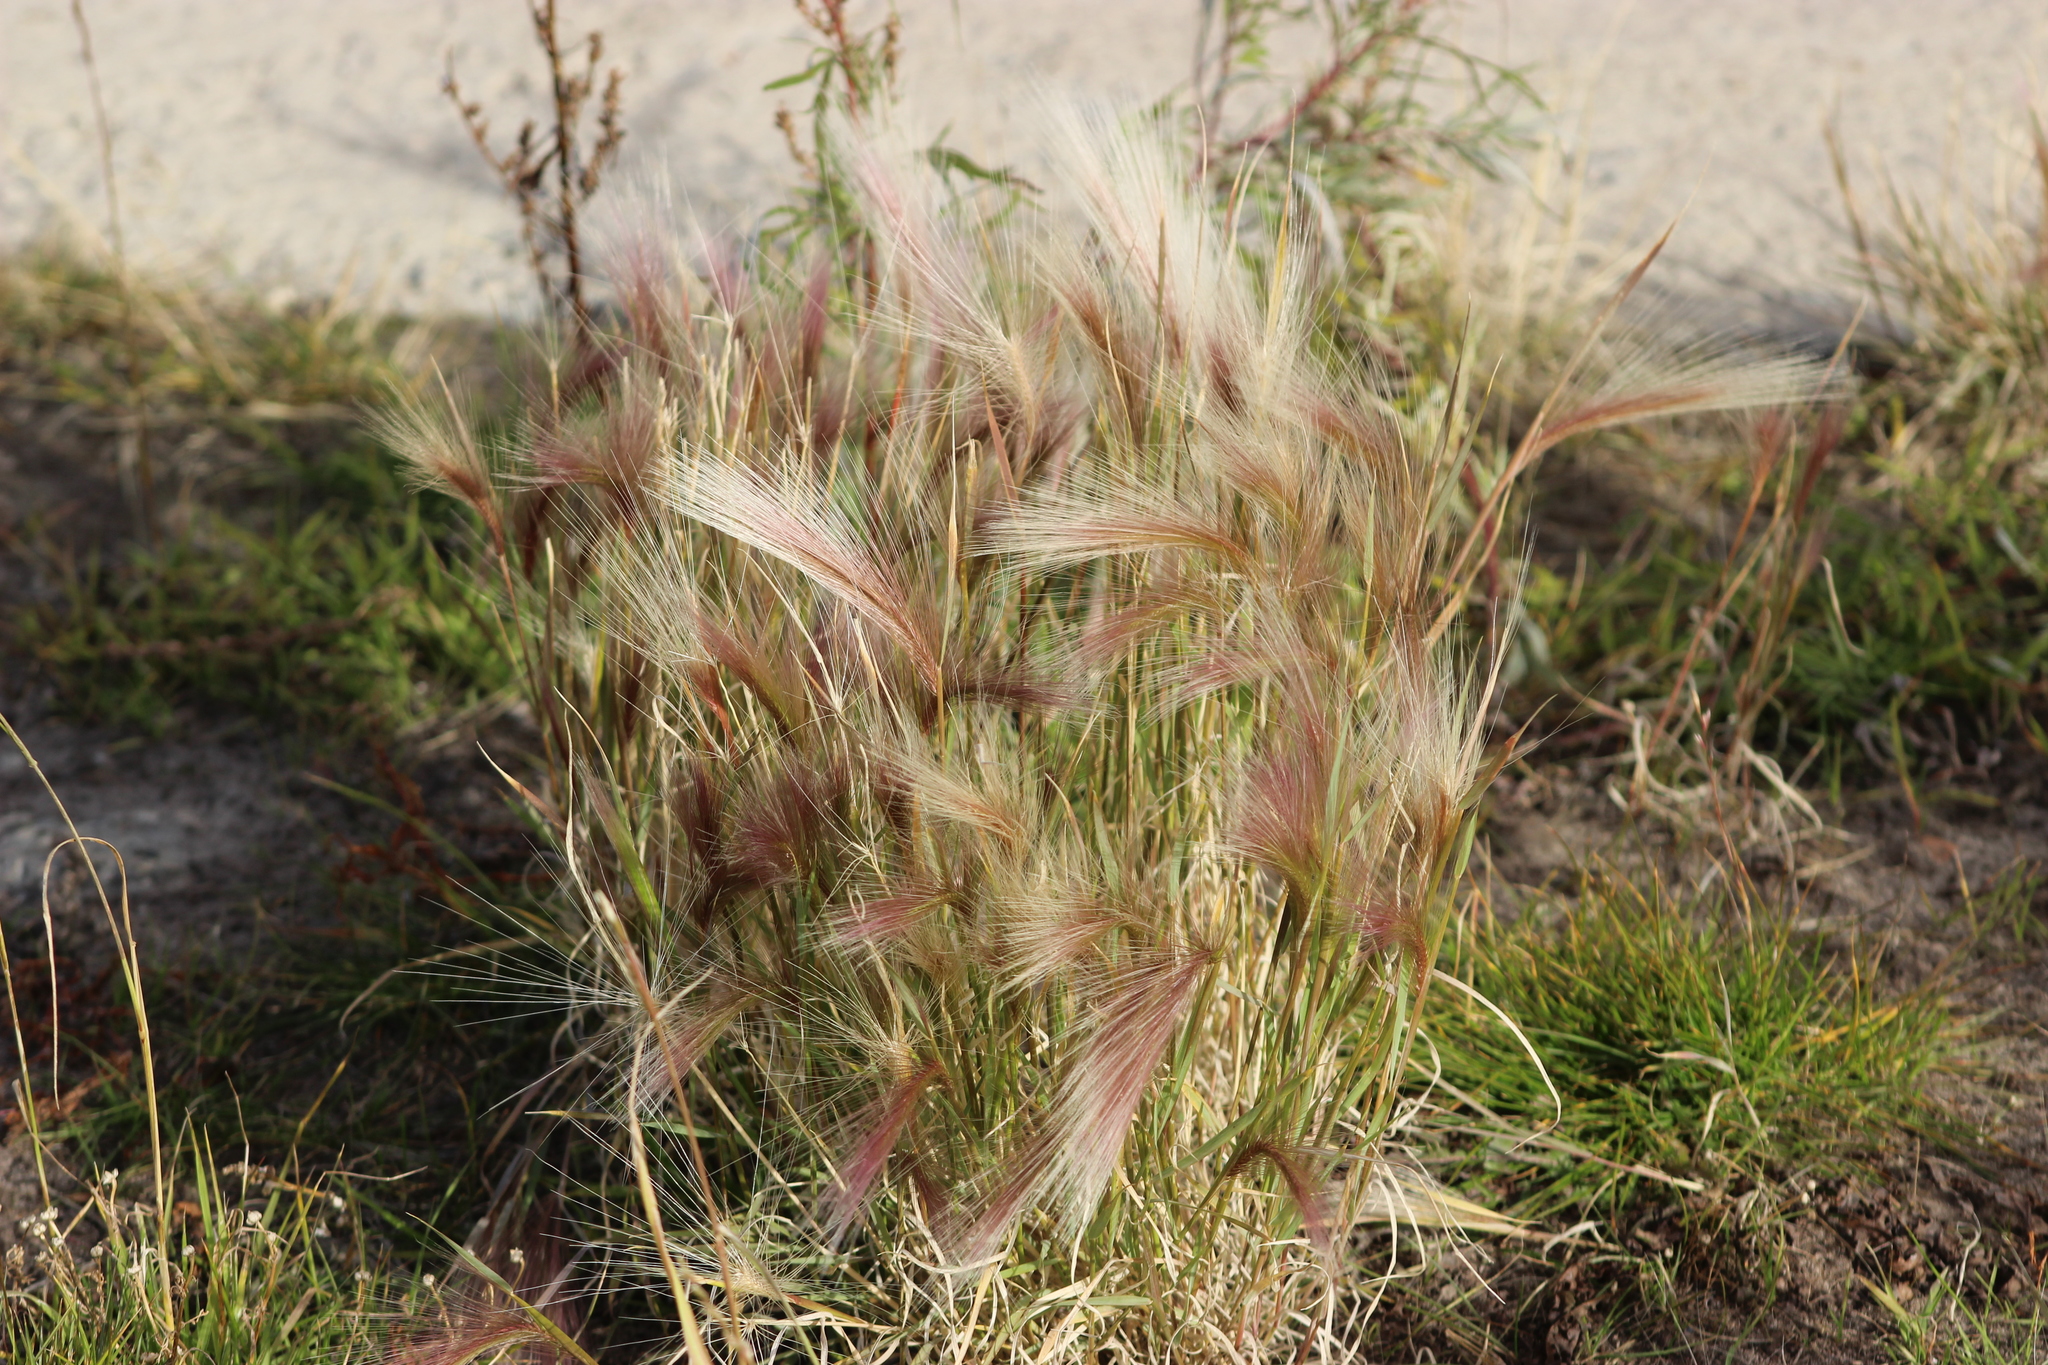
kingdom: Plantae
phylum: Tracheophyta
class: Liliopsida
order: Poales
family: Poaceae
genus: Hordeum
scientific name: Hordeum jubatum
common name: Foxtail barley
